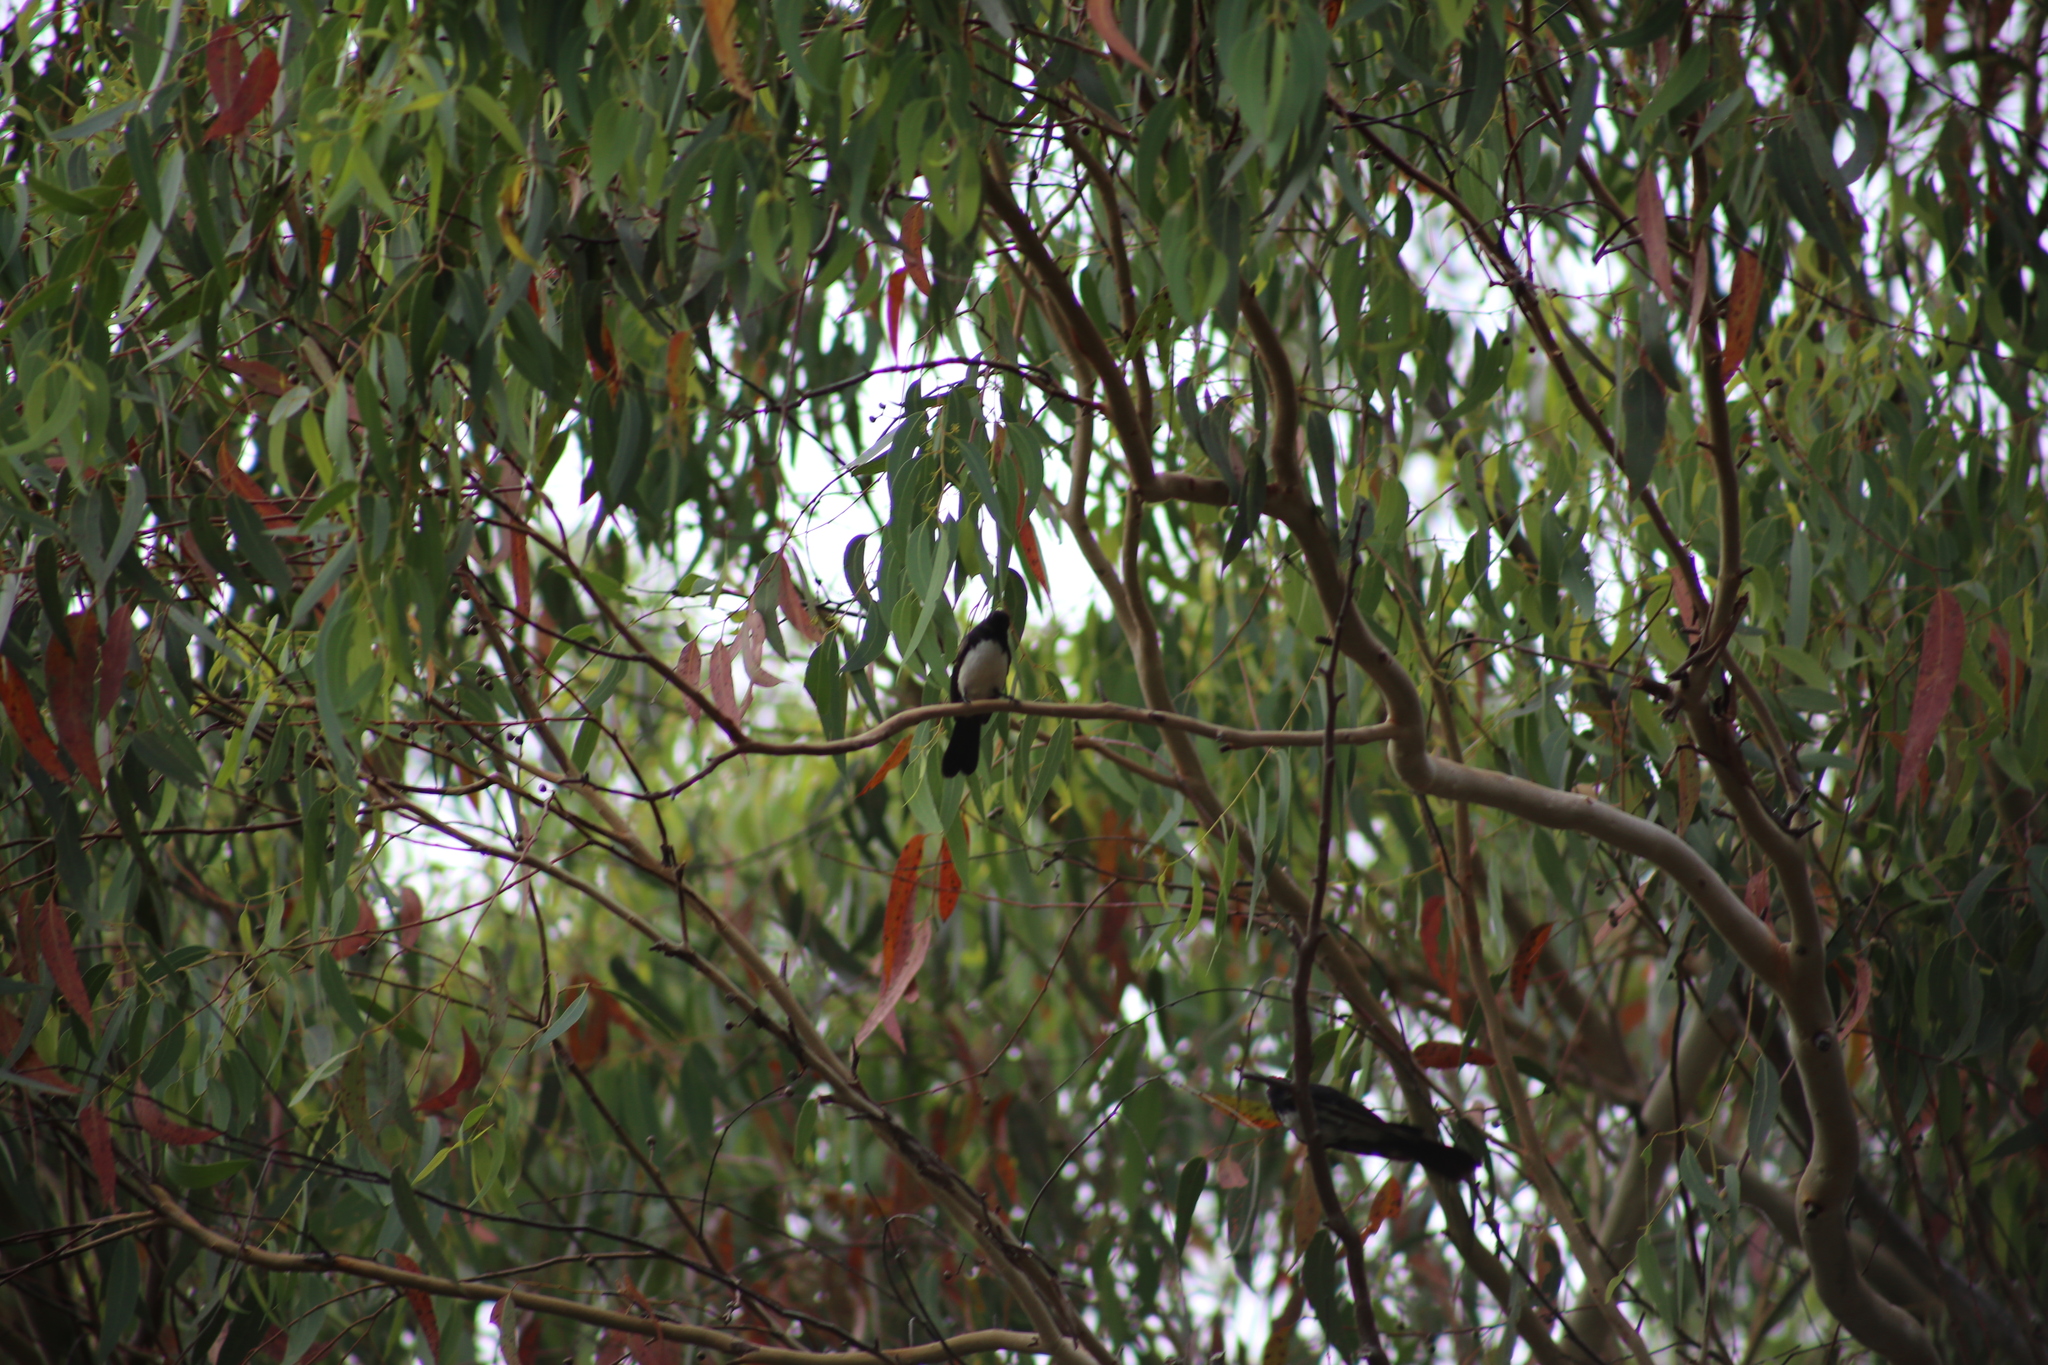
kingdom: Animalia
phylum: Chordata
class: Aves
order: Passeriformes
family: Rhipiduridae
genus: Rhipidura
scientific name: Rhipidura leucophrys
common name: Willie wagtail
